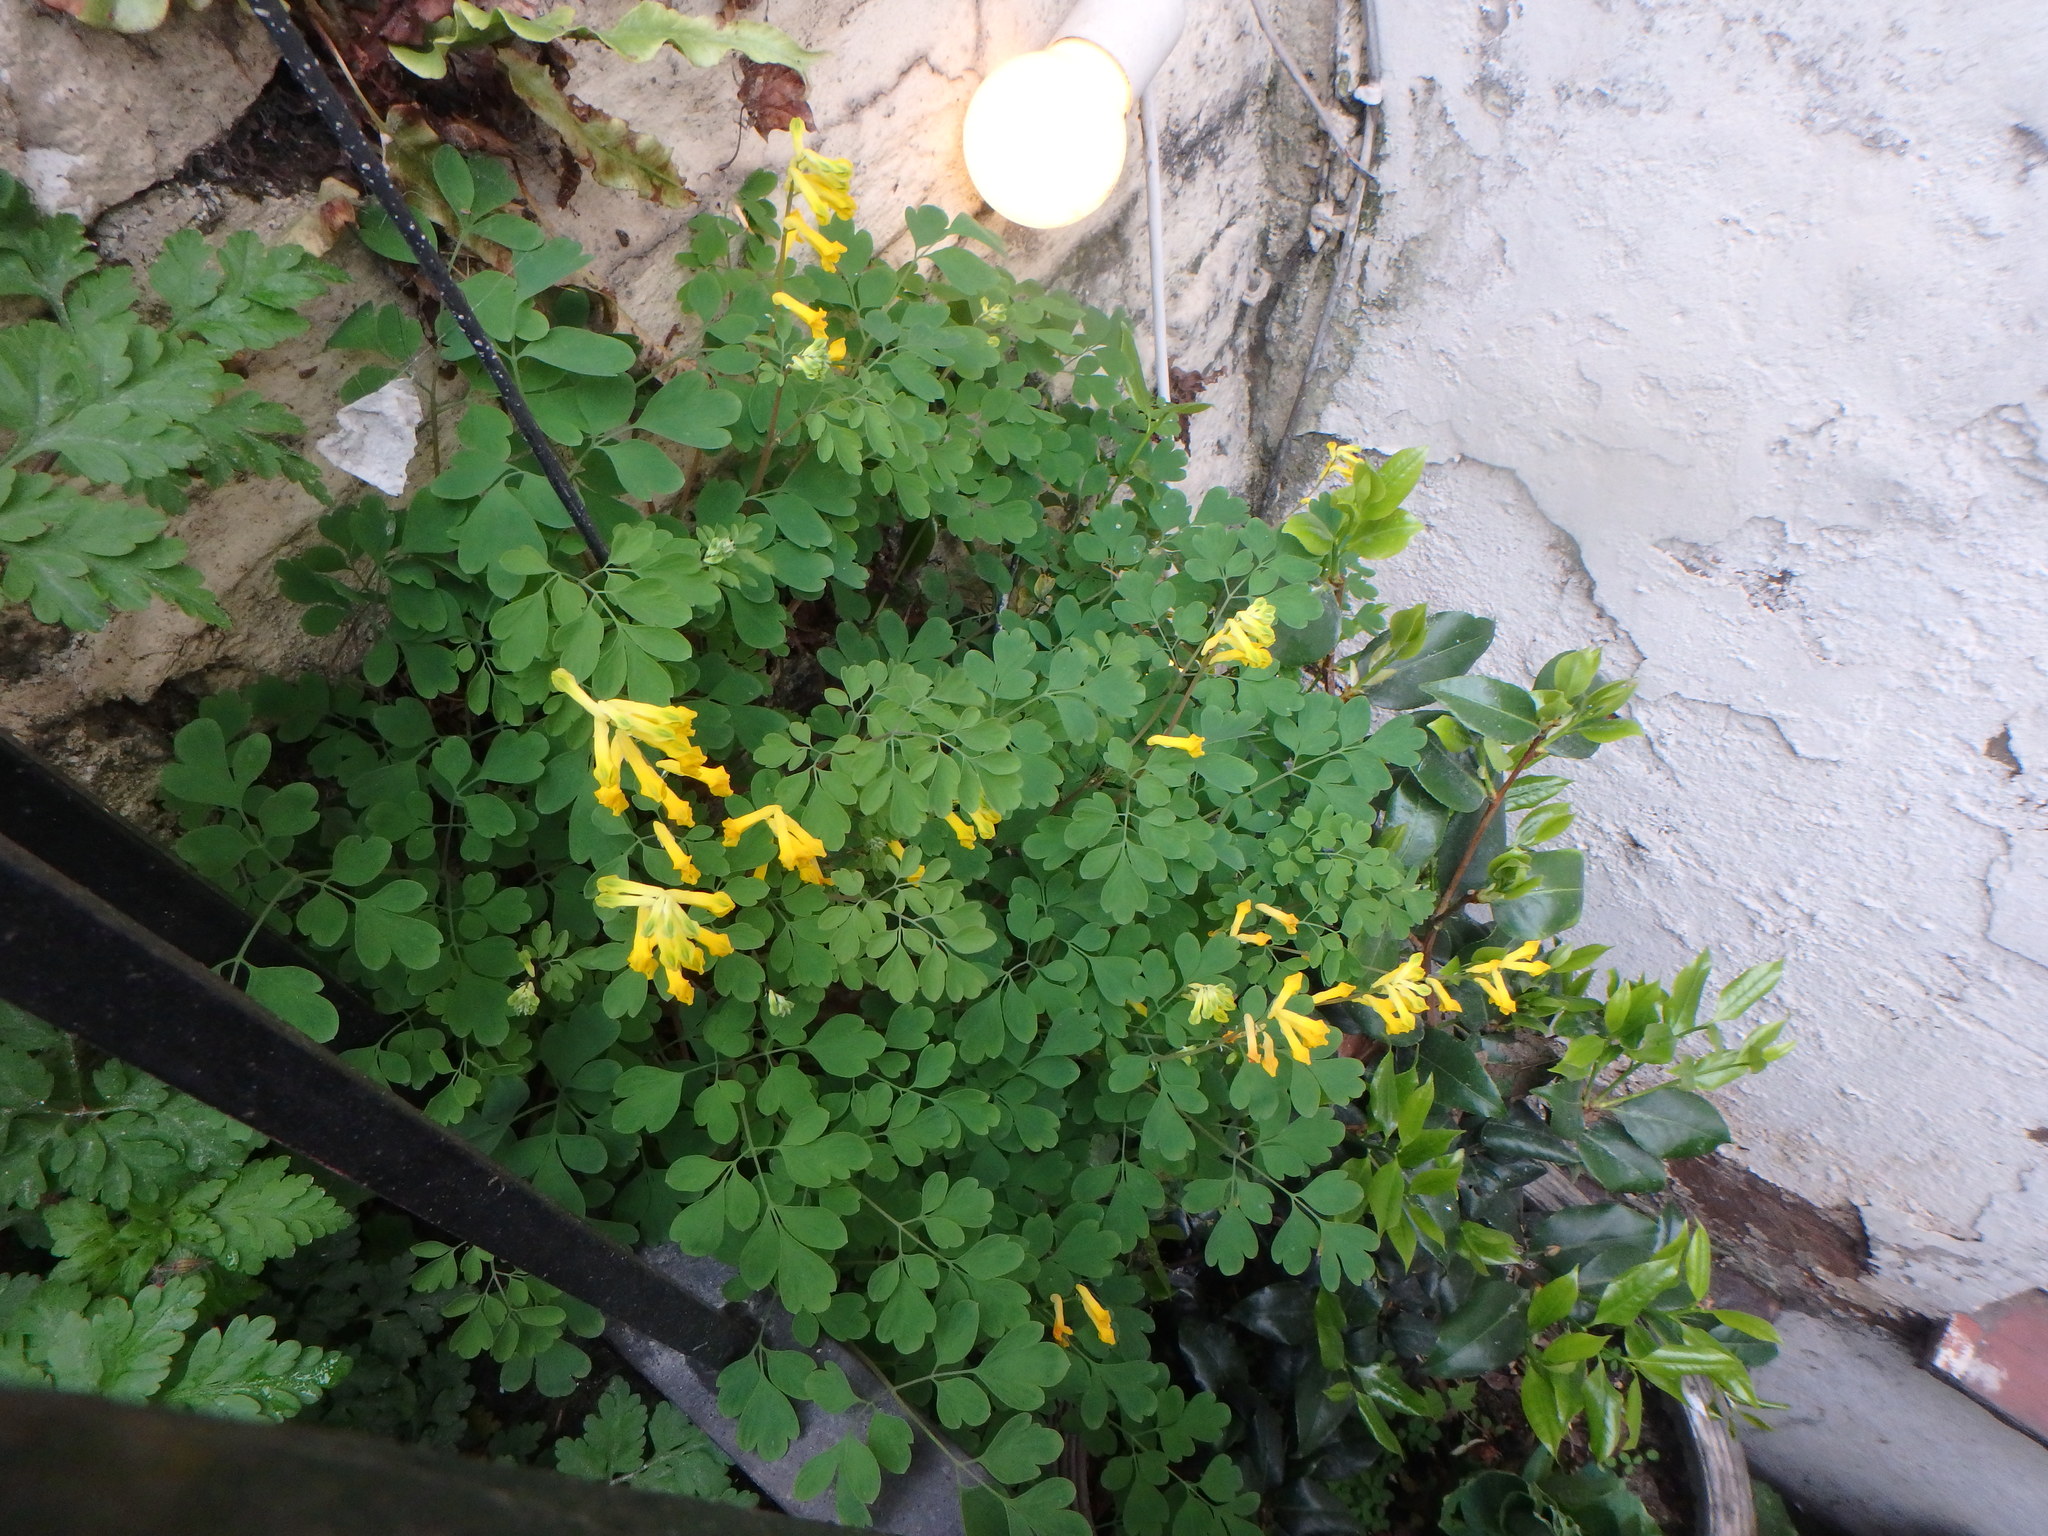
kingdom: Plantae
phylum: Tracheophyta
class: Magnoliopsida
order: Ranunculales
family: Papaveraceae
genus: Pseudofumaria
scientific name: Pseudofumaria lutea
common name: Yellow corydalis
